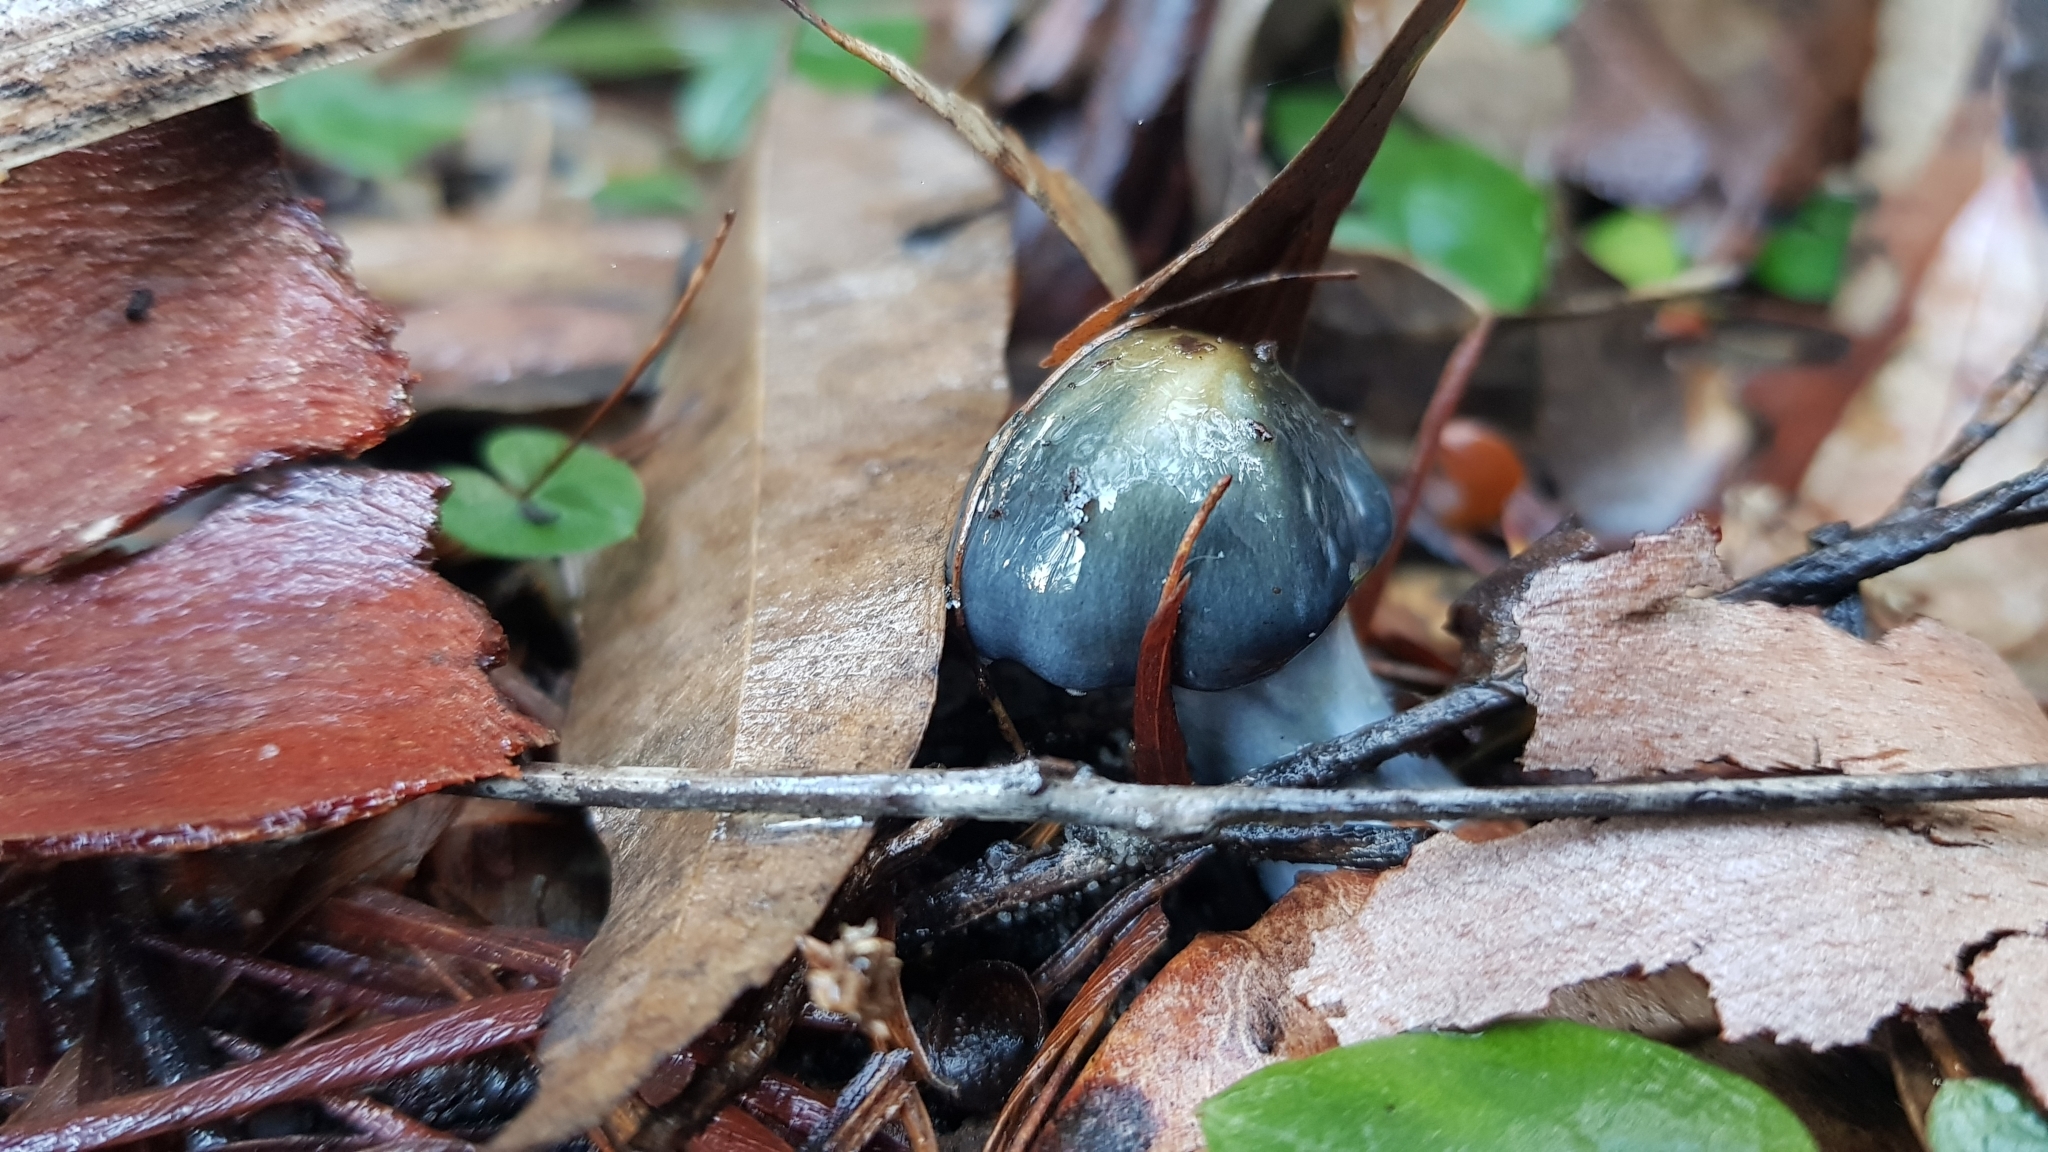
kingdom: Fungi
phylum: Basidiomycota
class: Agaricomycetes
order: Agaricales
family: Cortinariaceae
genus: Cortinarius
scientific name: Cortinarius rotundisporus
